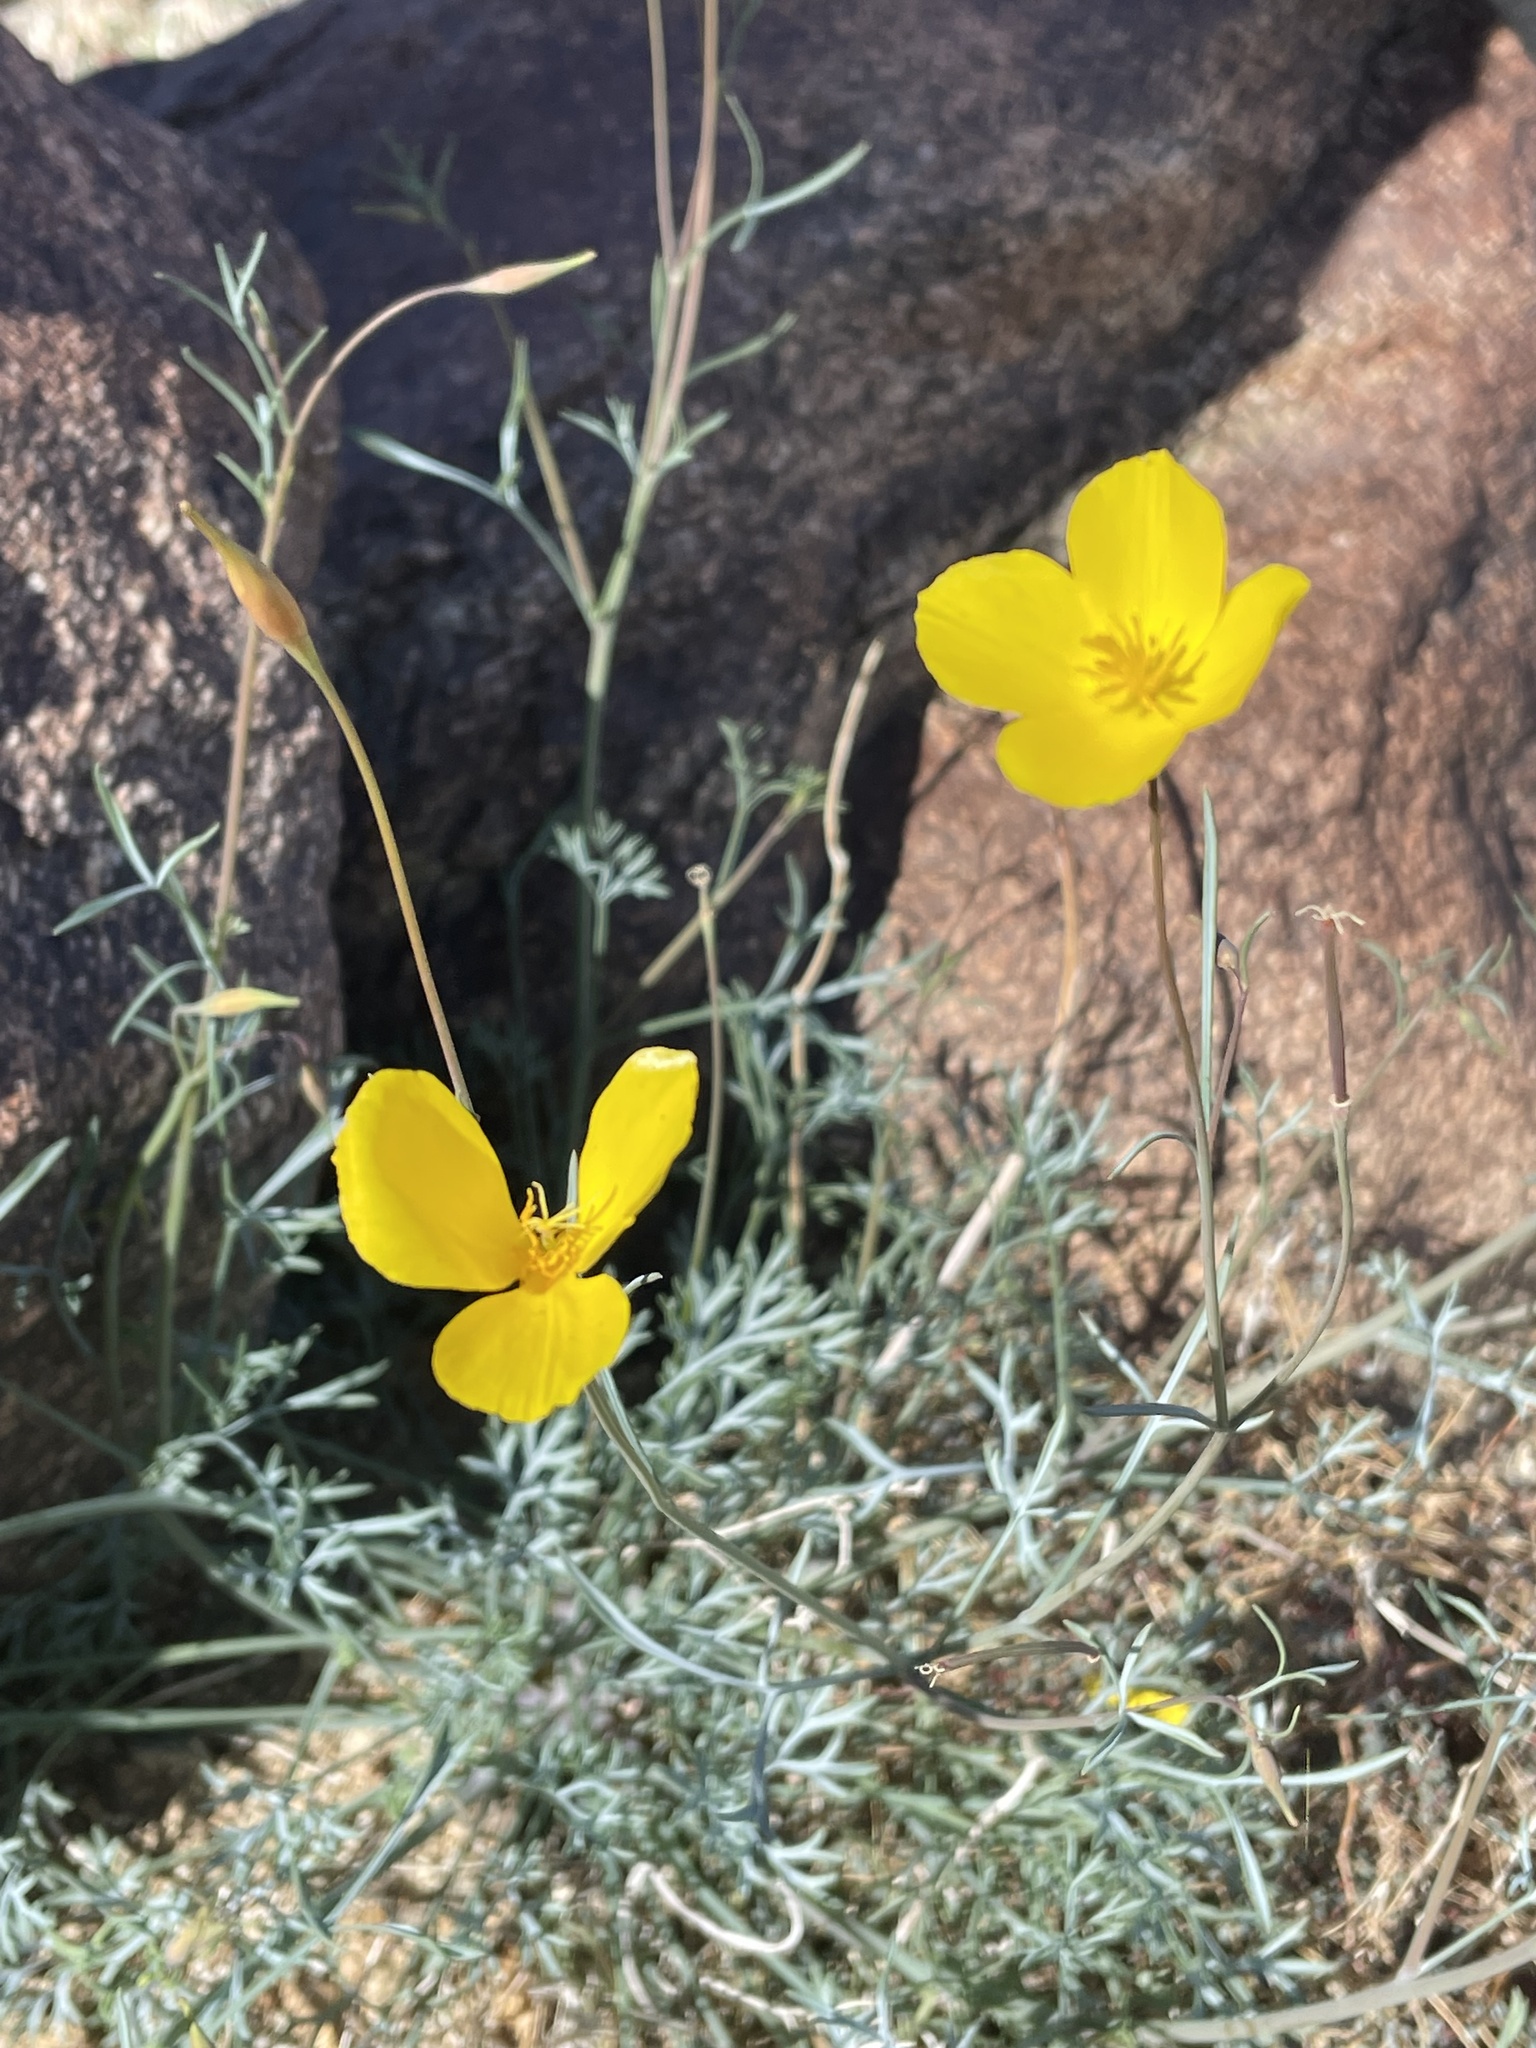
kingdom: Plantae
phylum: Tracheophyta
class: Magnoliopsida
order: Ranunculales
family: Papaveraceae
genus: Eschscholzia
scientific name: Eschscholzia parishii
